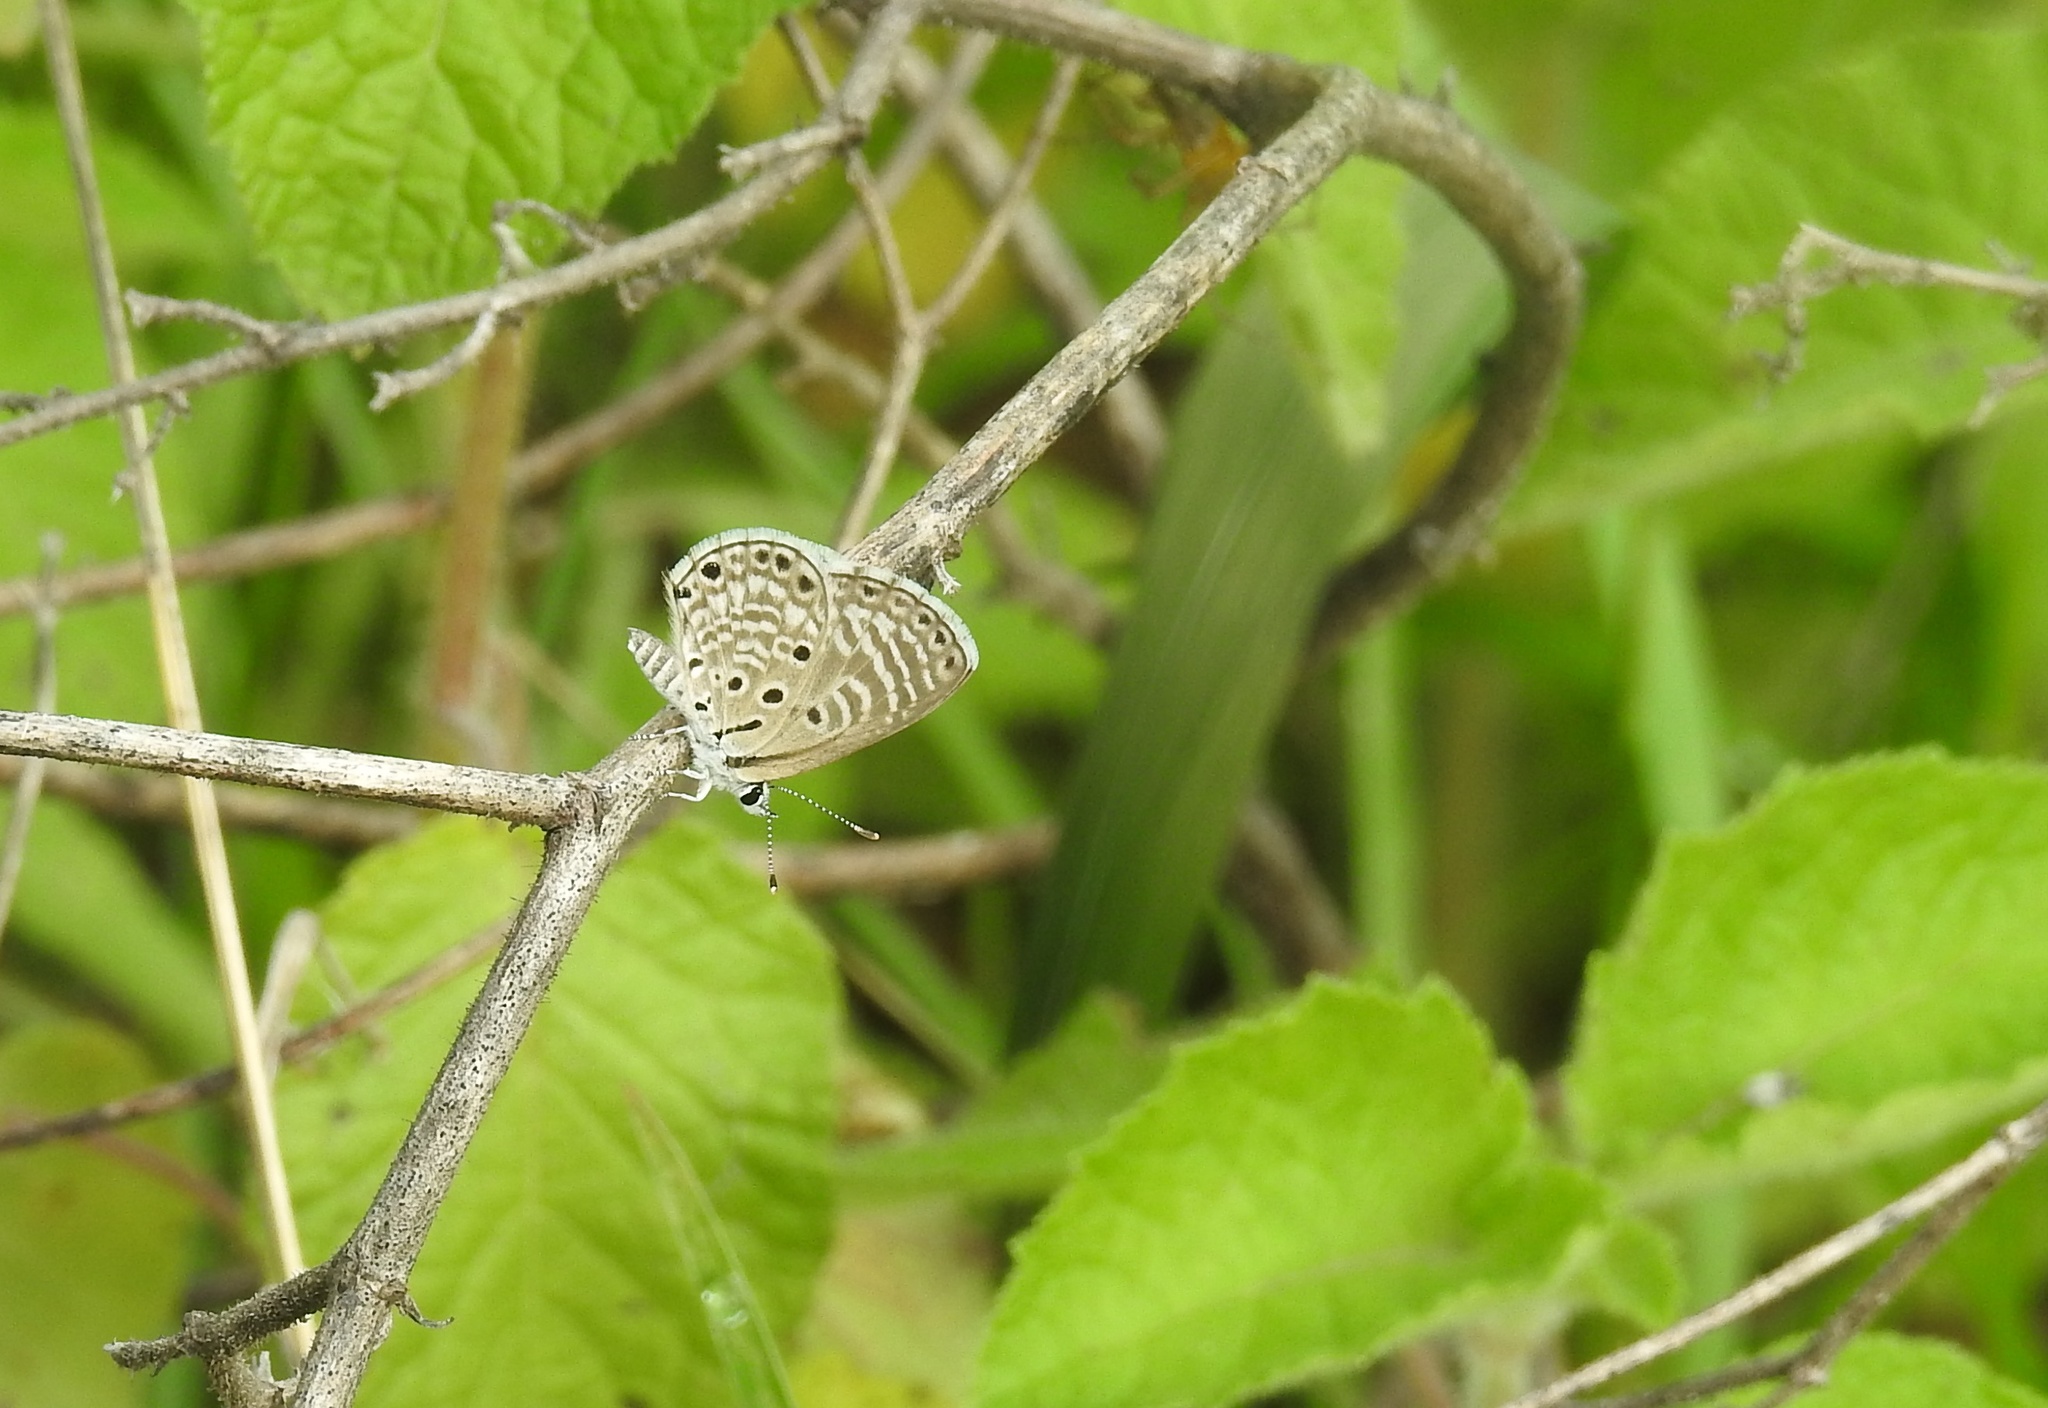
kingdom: Animalia
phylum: Arthropoda
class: Insecta
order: Lepidoptera
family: Lycaenidae
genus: Azanus
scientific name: Azanus jesous
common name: African babul blue
